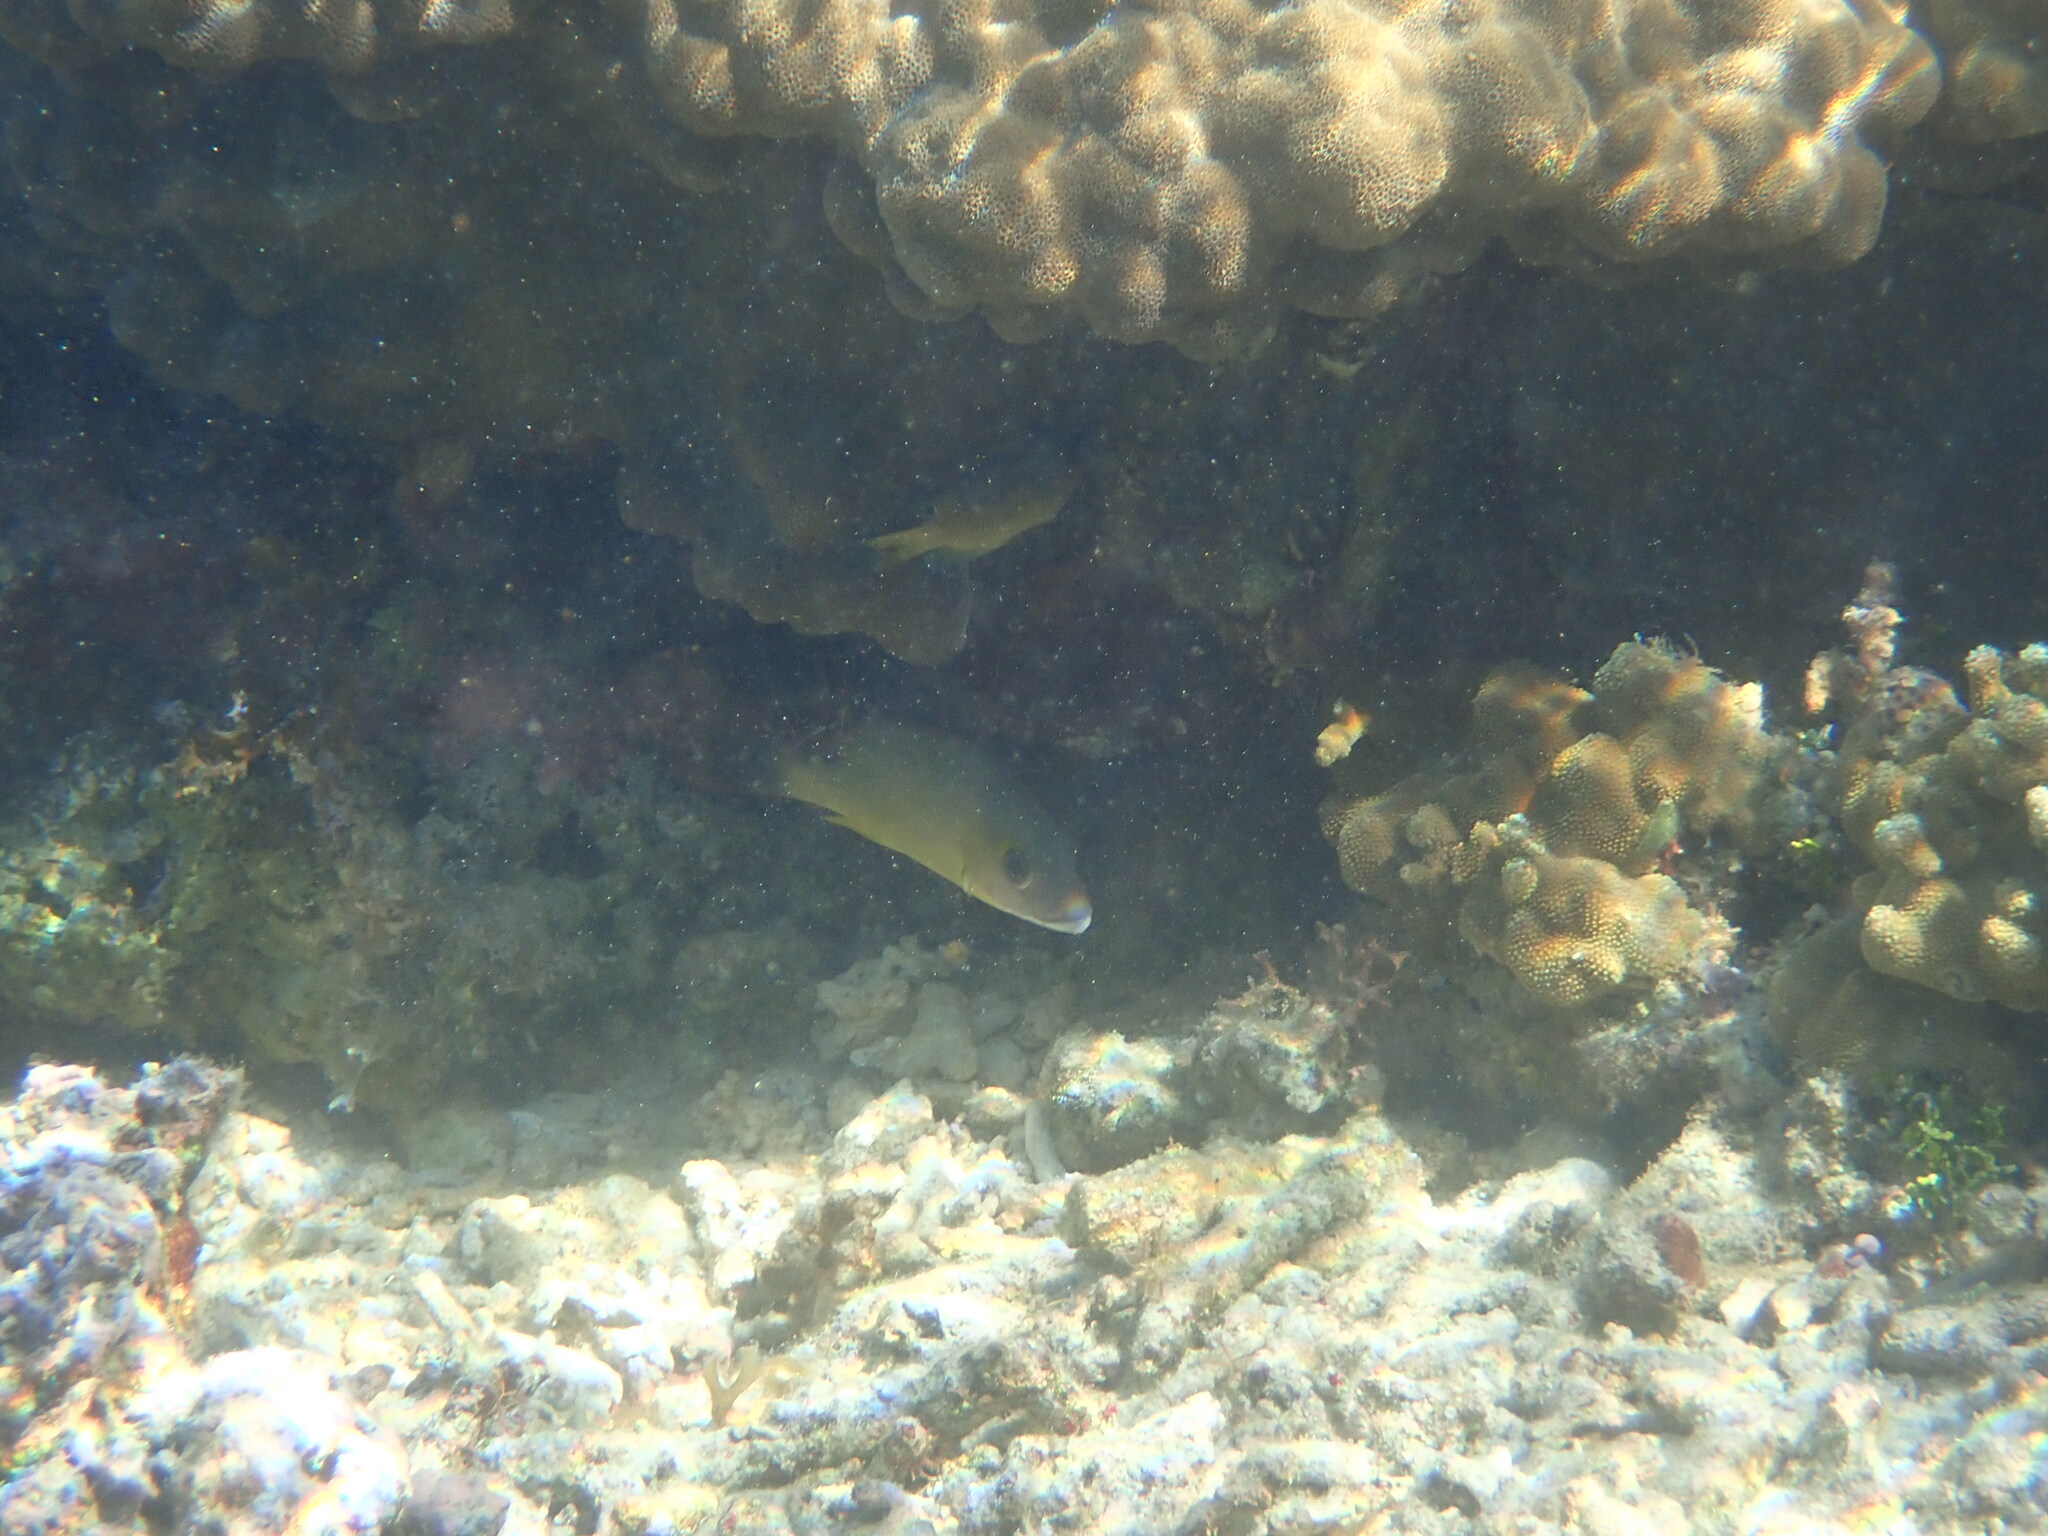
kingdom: Animalia
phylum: Chordata
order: Perciformes
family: Lutjanidae
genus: Lutjanus
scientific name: Lutjanus fulvus
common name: Blacktail snapper
